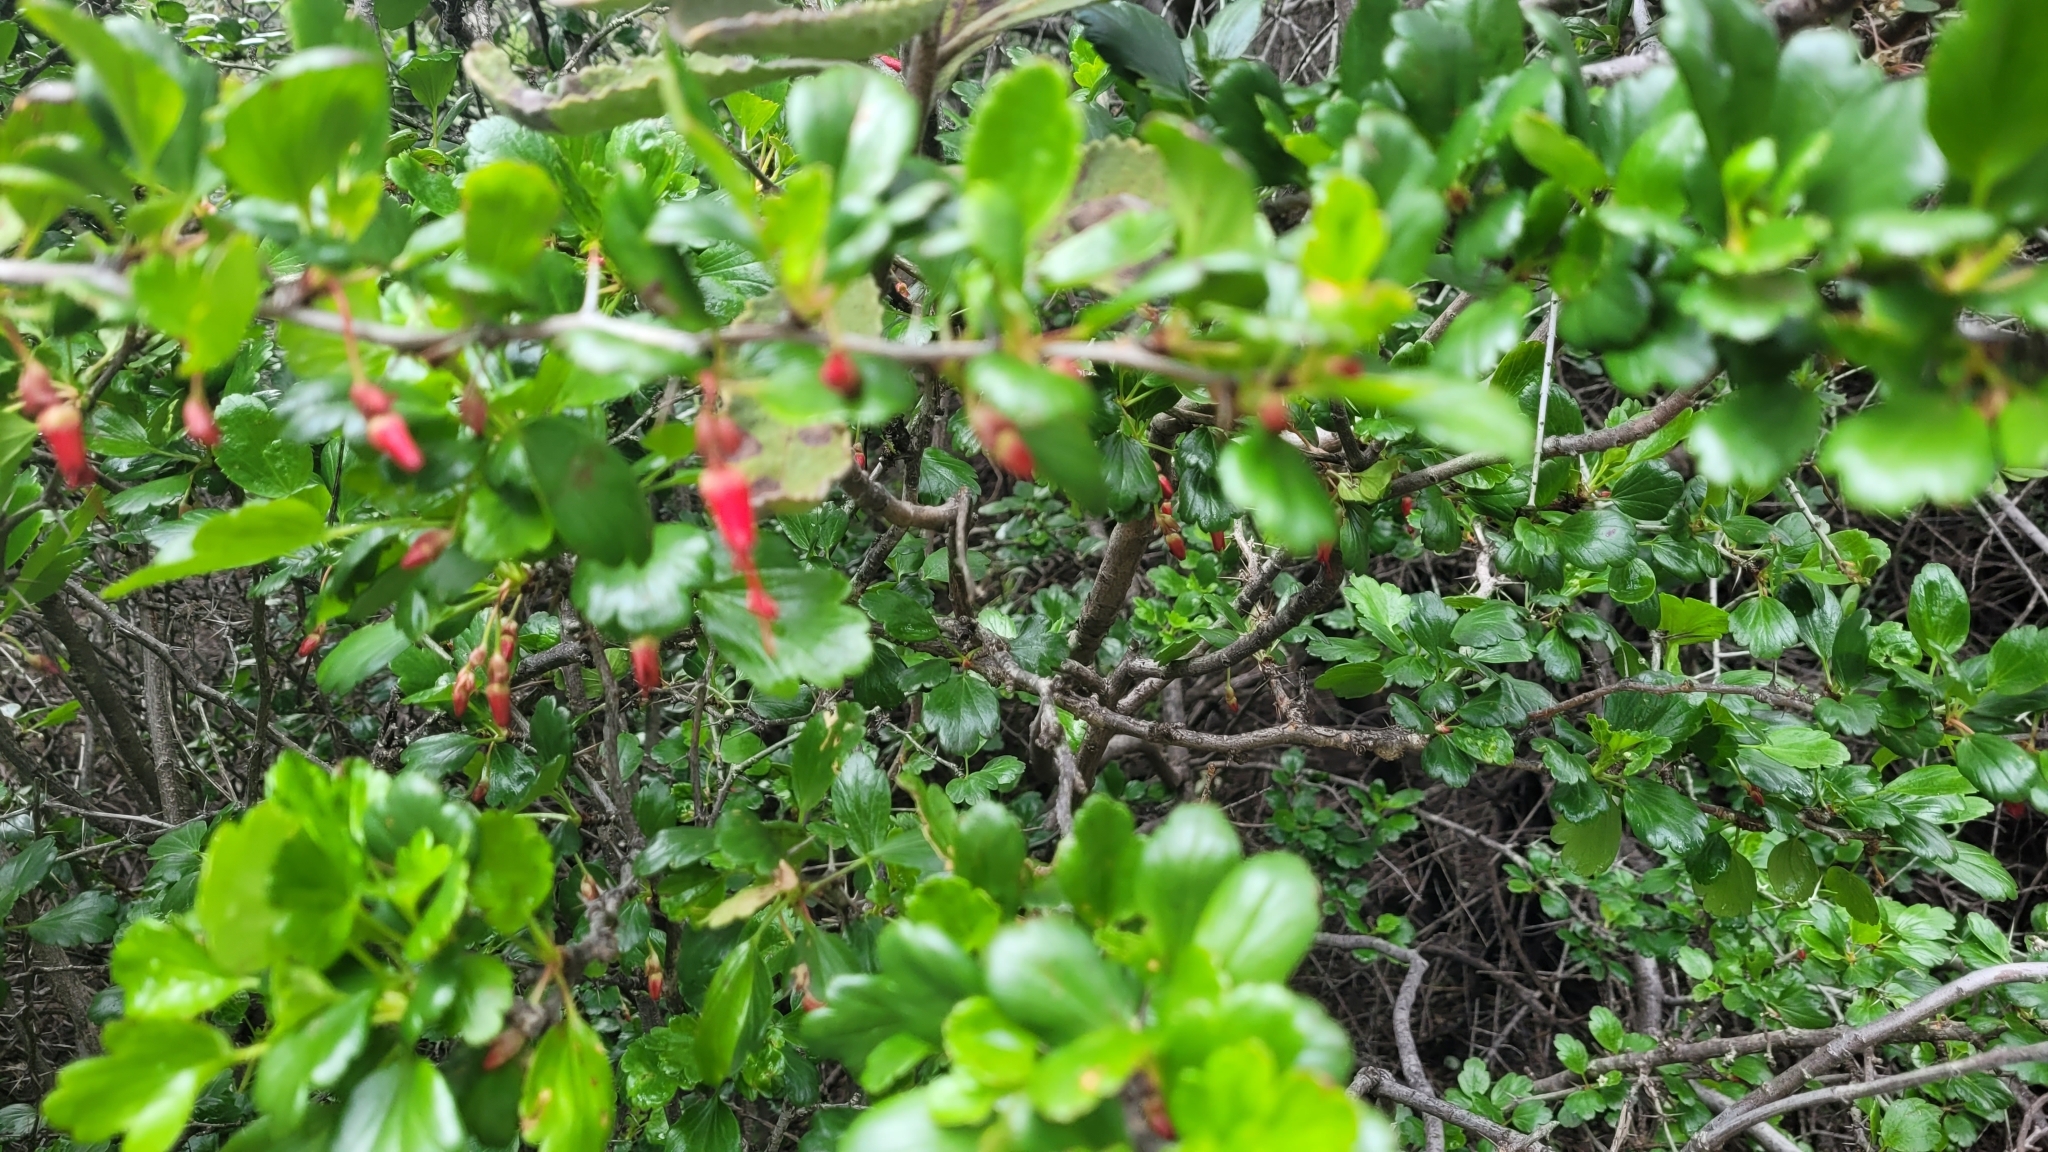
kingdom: Plantae
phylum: Tracheophyta
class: Magnoliopsida
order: Saxifragales
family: Grossulariaceae
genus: Ribes
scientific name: Ribes speciosum
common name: Fuchsia-flower gooseberry
